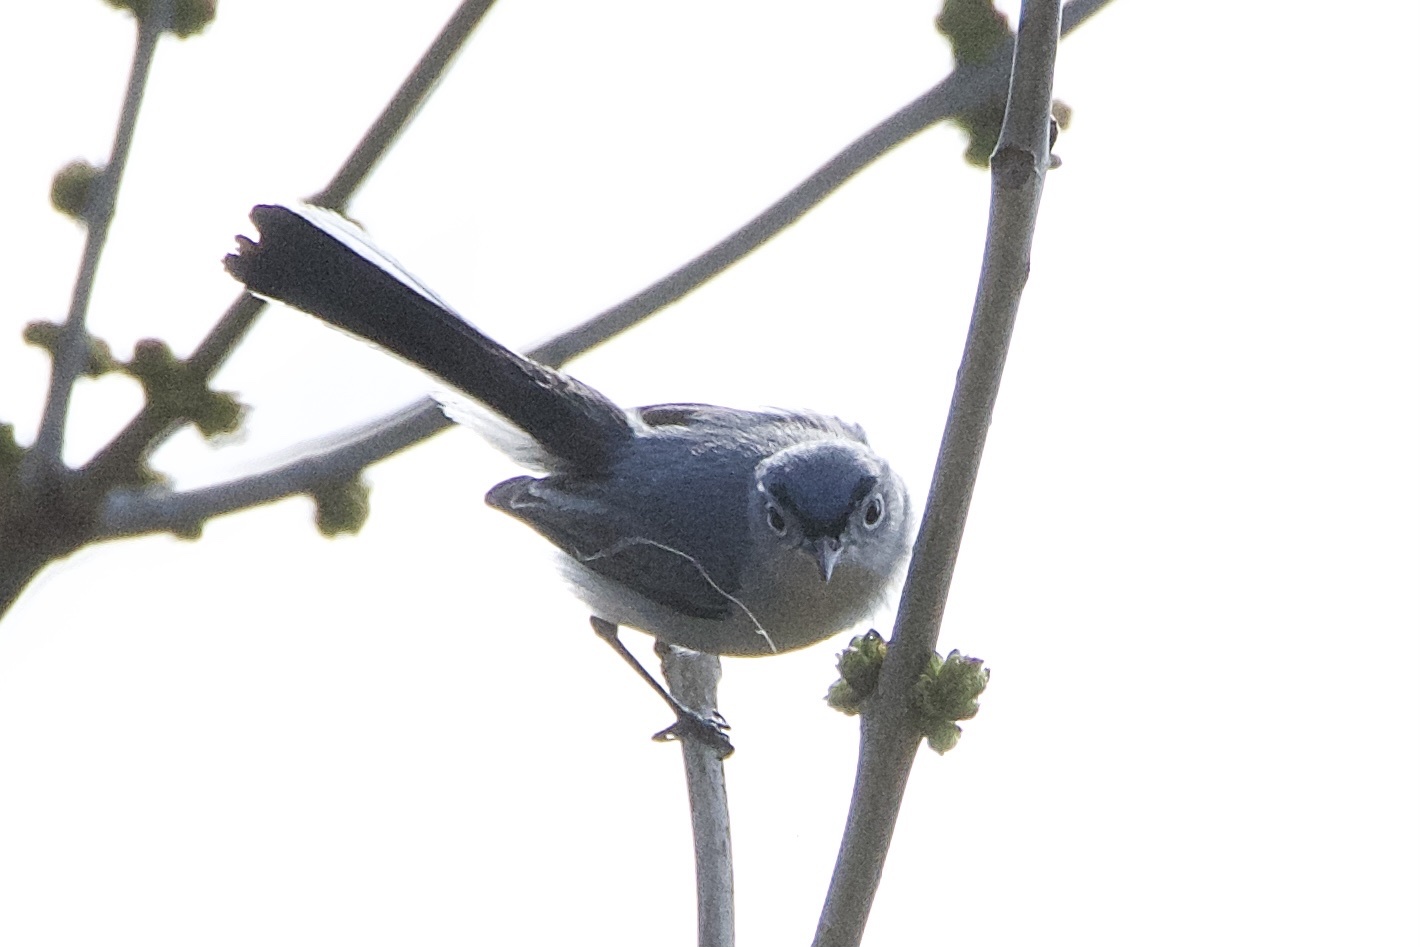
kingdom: Animalia
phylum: Chordata
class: Aves
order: Passeriformes
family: Polioptilidae
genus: Polioptila
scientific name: Polioptila caerulea
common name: Blue-gray gnatcatcher
